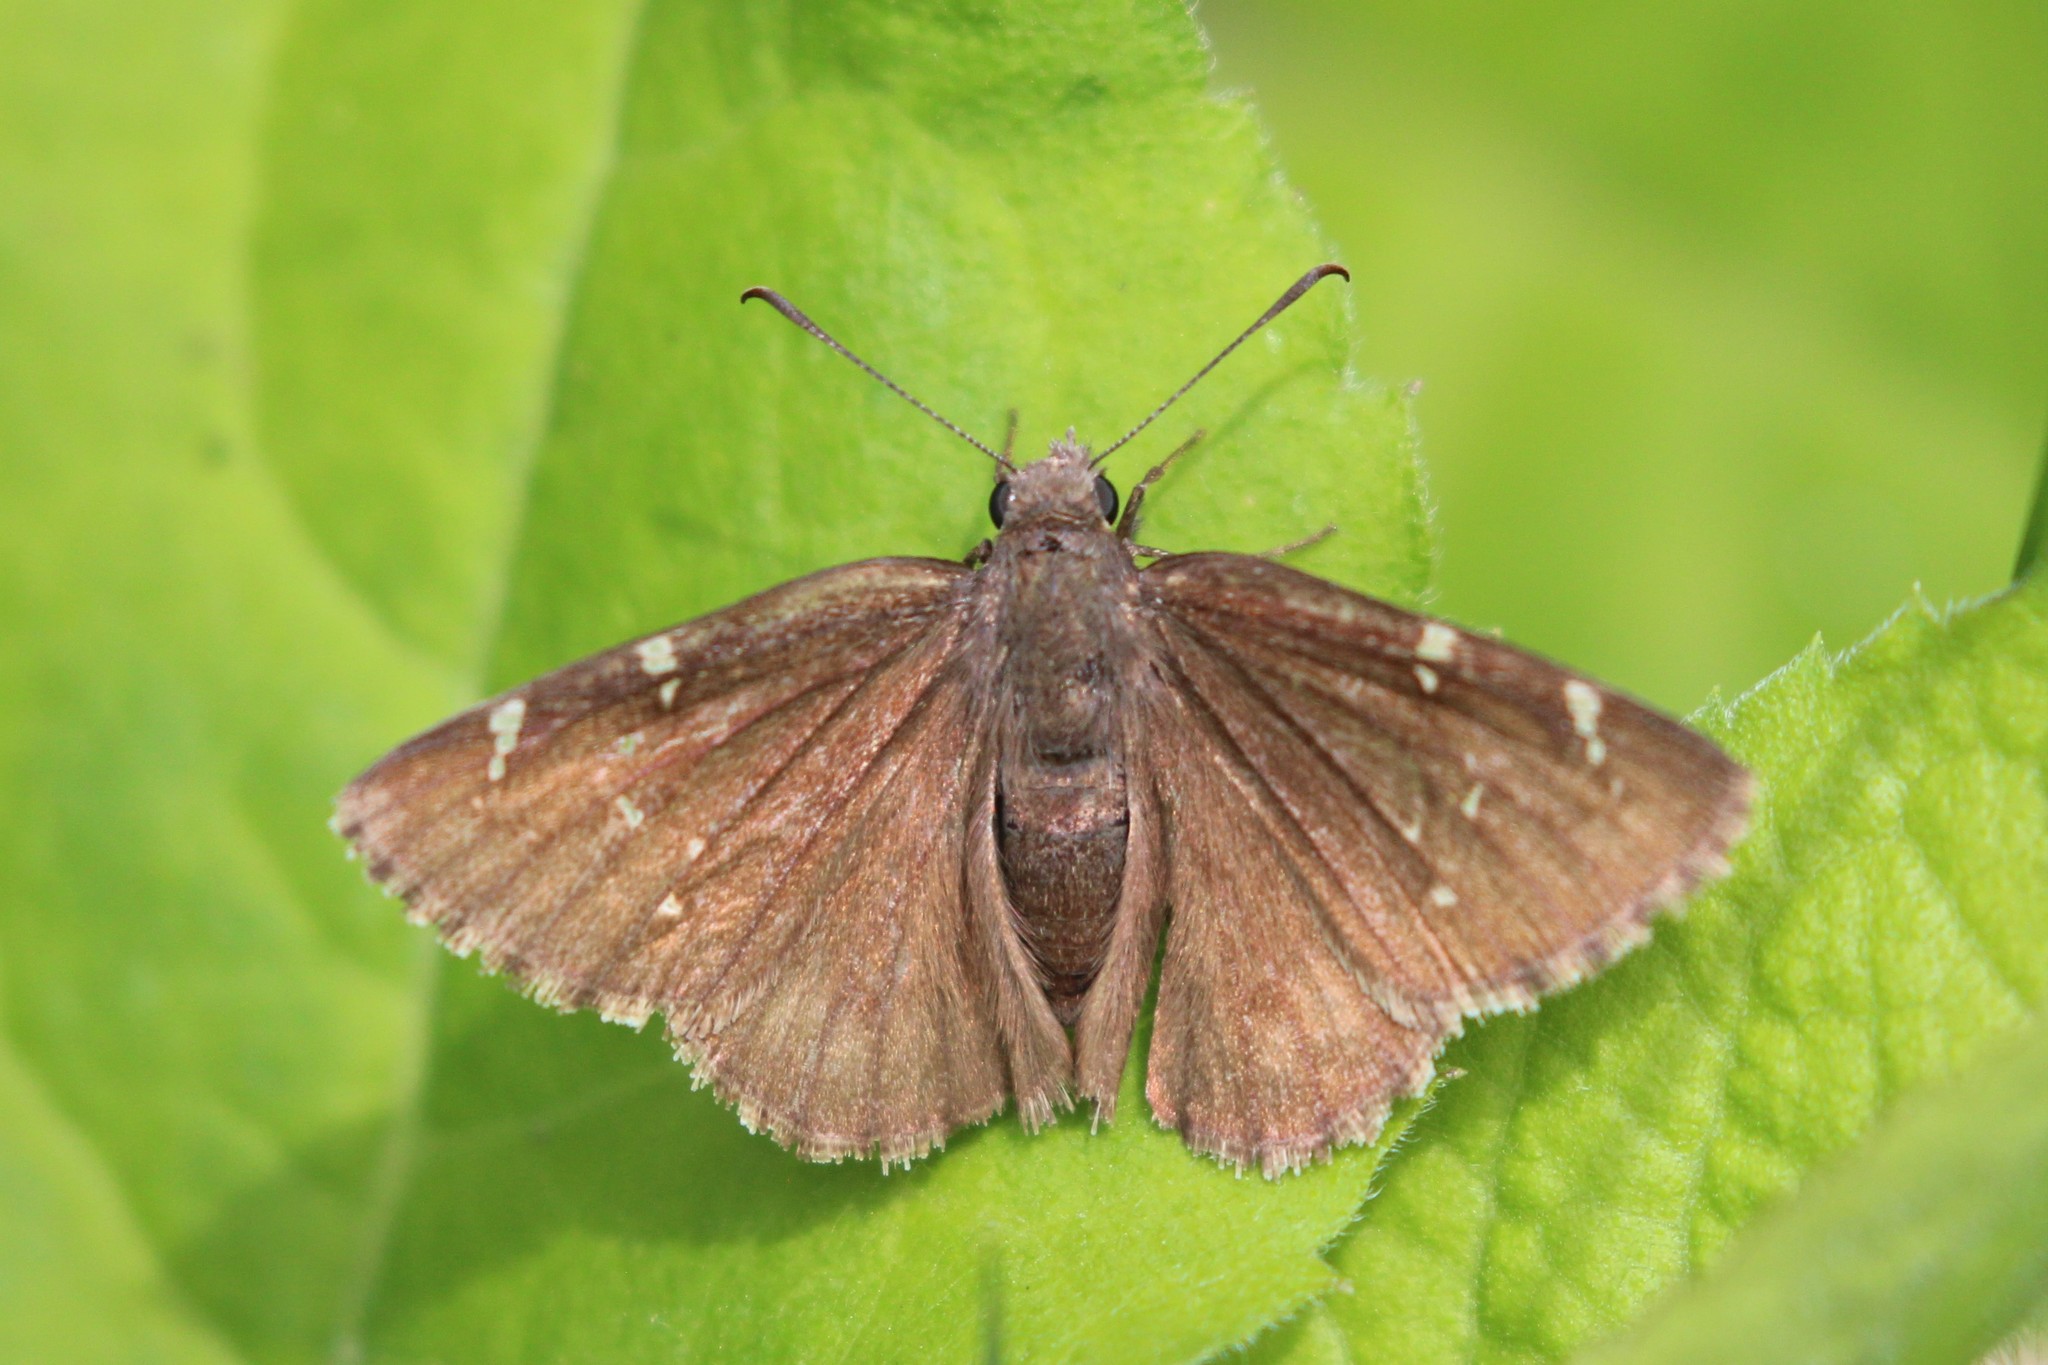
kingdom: Animalia
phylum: Arthropoda
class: Insecta
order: Lepidoptera
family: Hesperiidae
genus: Thorybes
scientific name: Thorybes pylades
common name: Northern cloudywing
